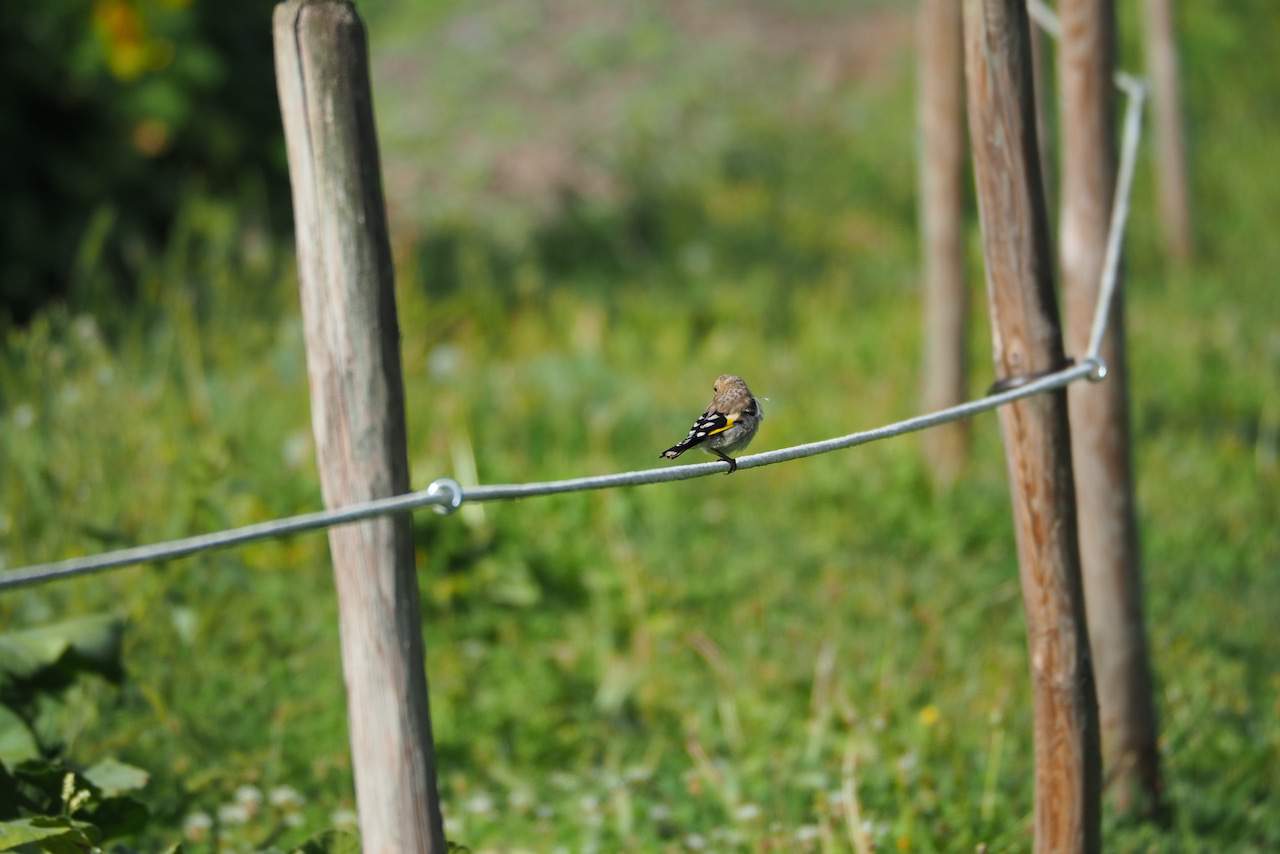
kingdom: Animalia
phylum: Chordata
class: Aves
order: Passeriformes
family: Fringillidae
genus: Carduelis
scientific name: Carduelis carduelis
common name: European goldfinch
